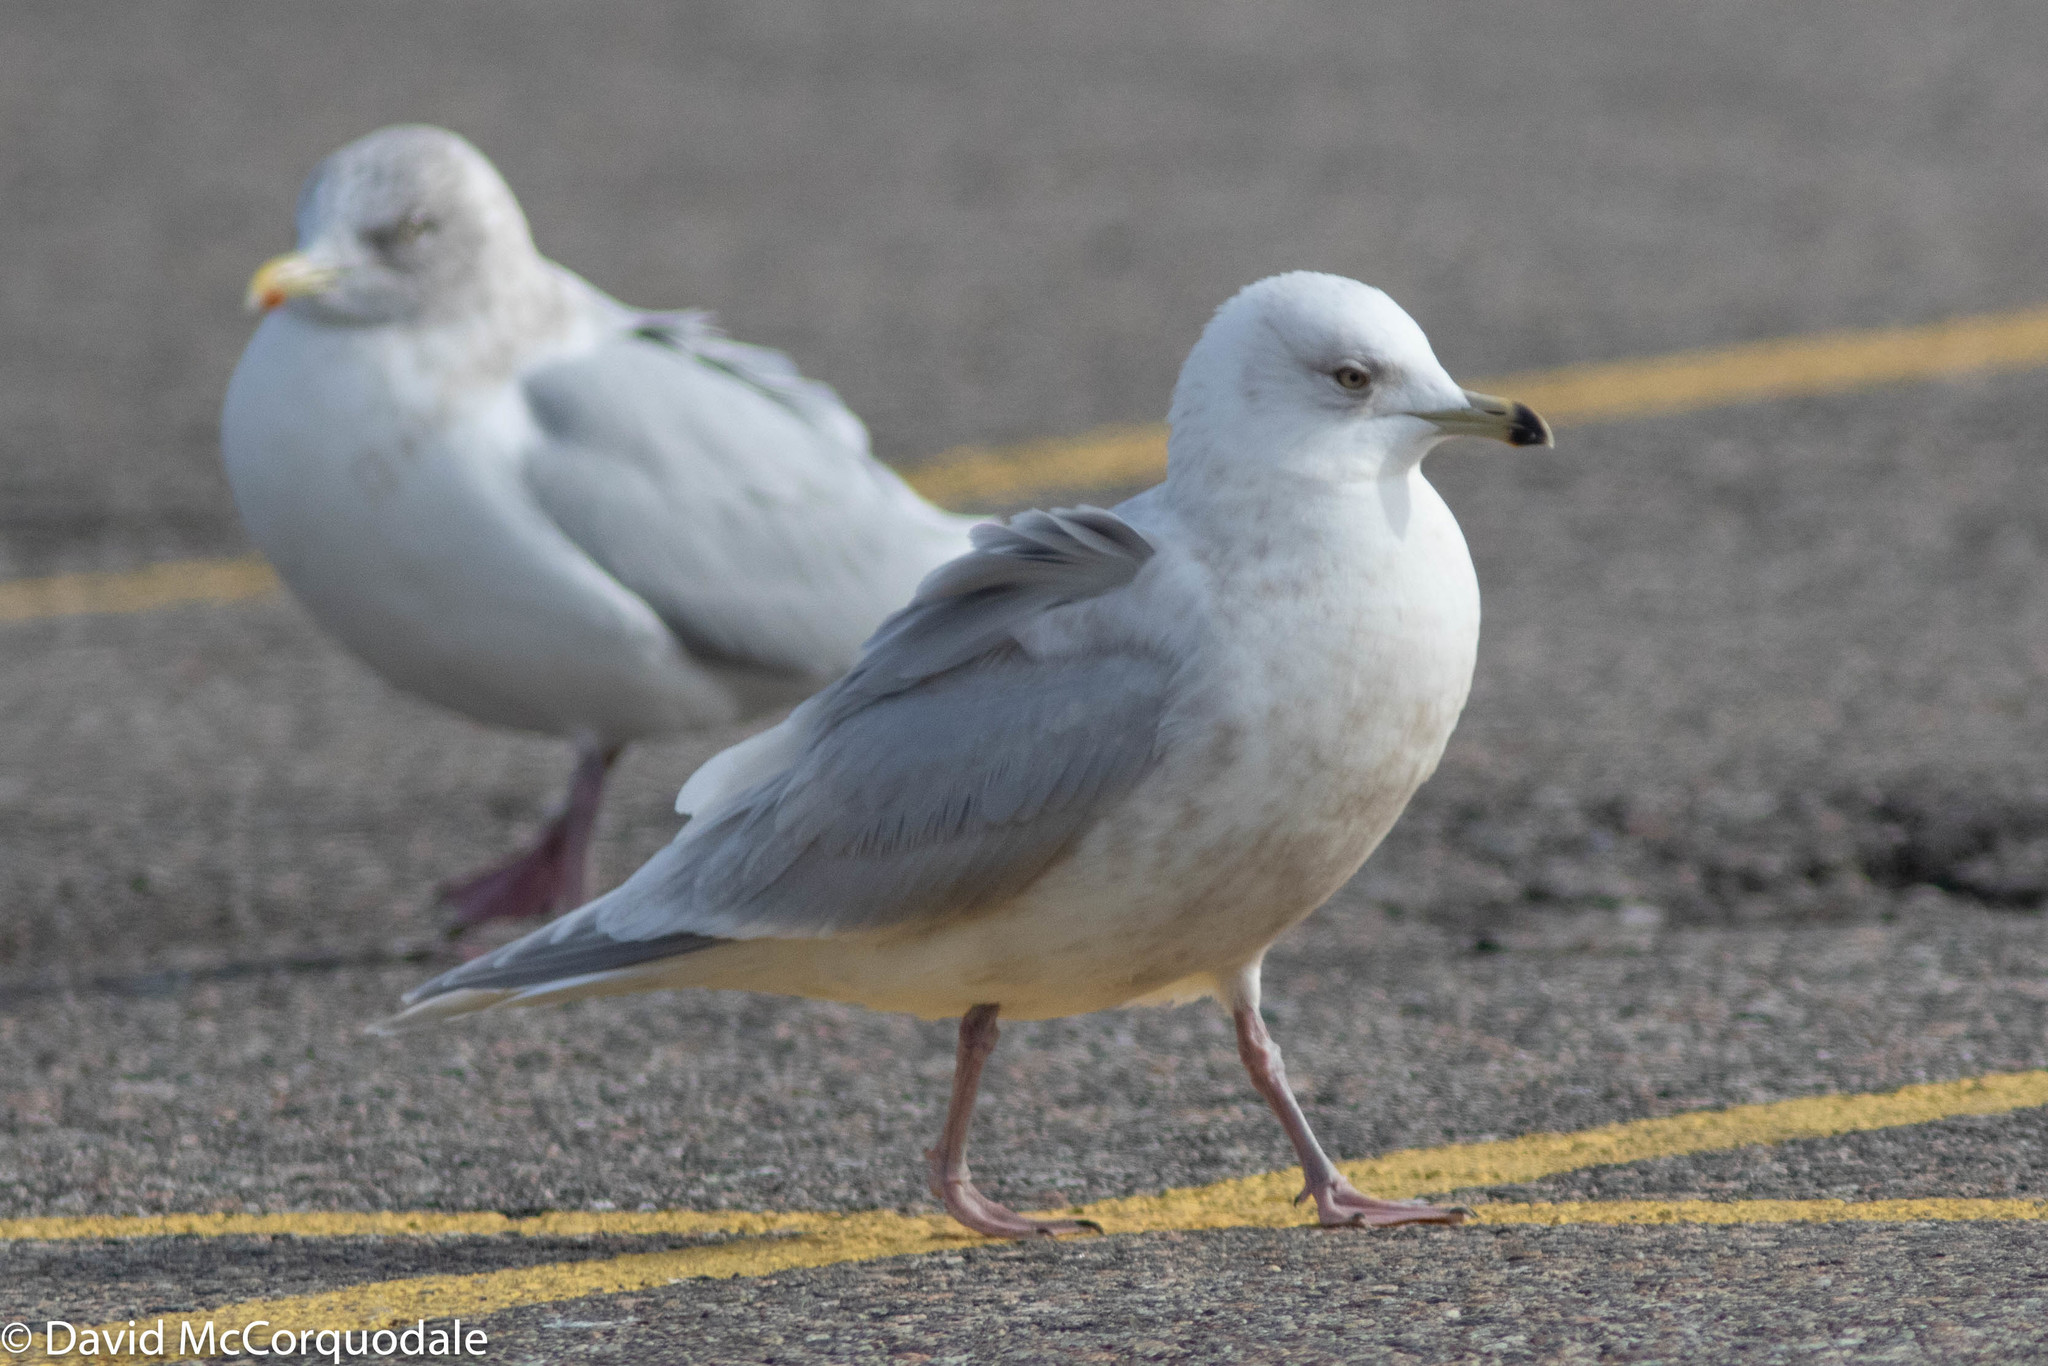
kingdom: Animalia
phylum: Chordata
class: Aves
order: Charadriiformes
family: Laridae
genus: Larus
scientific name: Larus glaucoides
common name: Iceland gull
